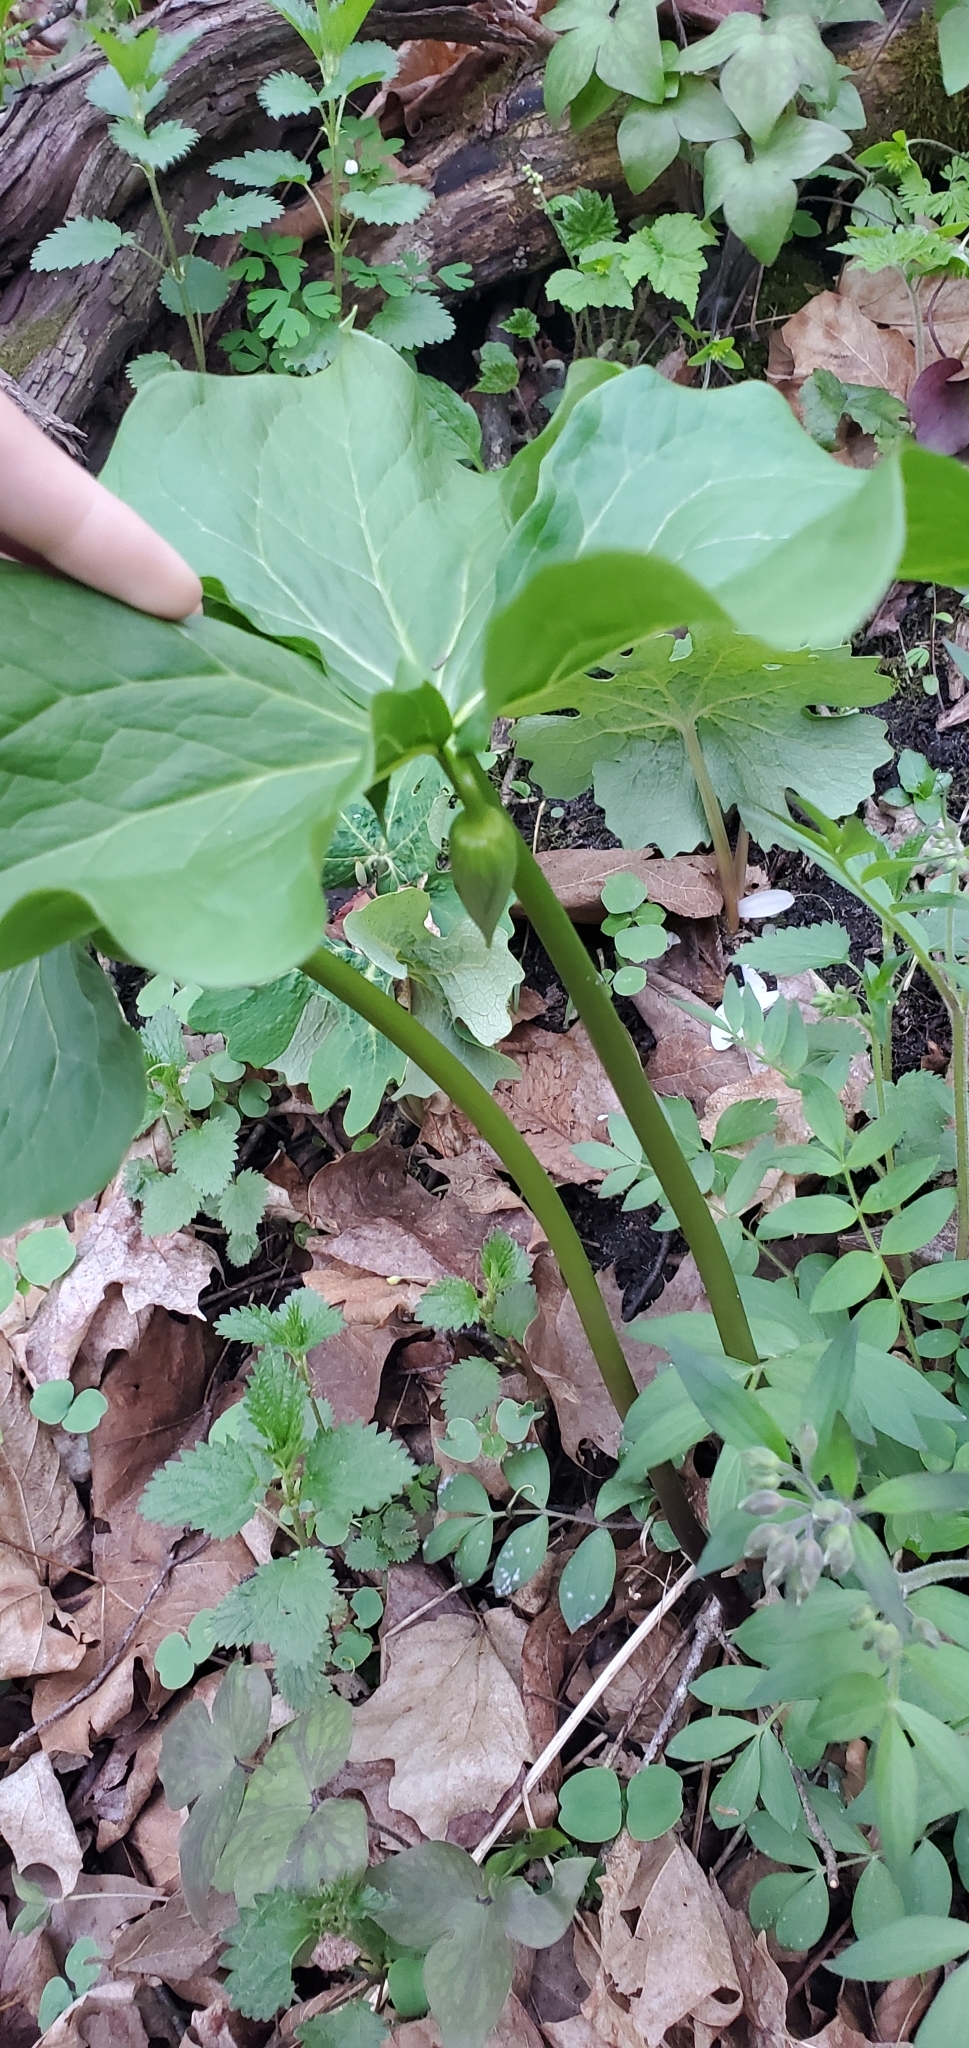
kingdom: Plantae
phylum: Tracheophyta
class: Liliopsida
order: Liliales
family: Melanthiaceae
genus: Trillium
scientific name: Trillium cernuum
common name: Nodding trillium
